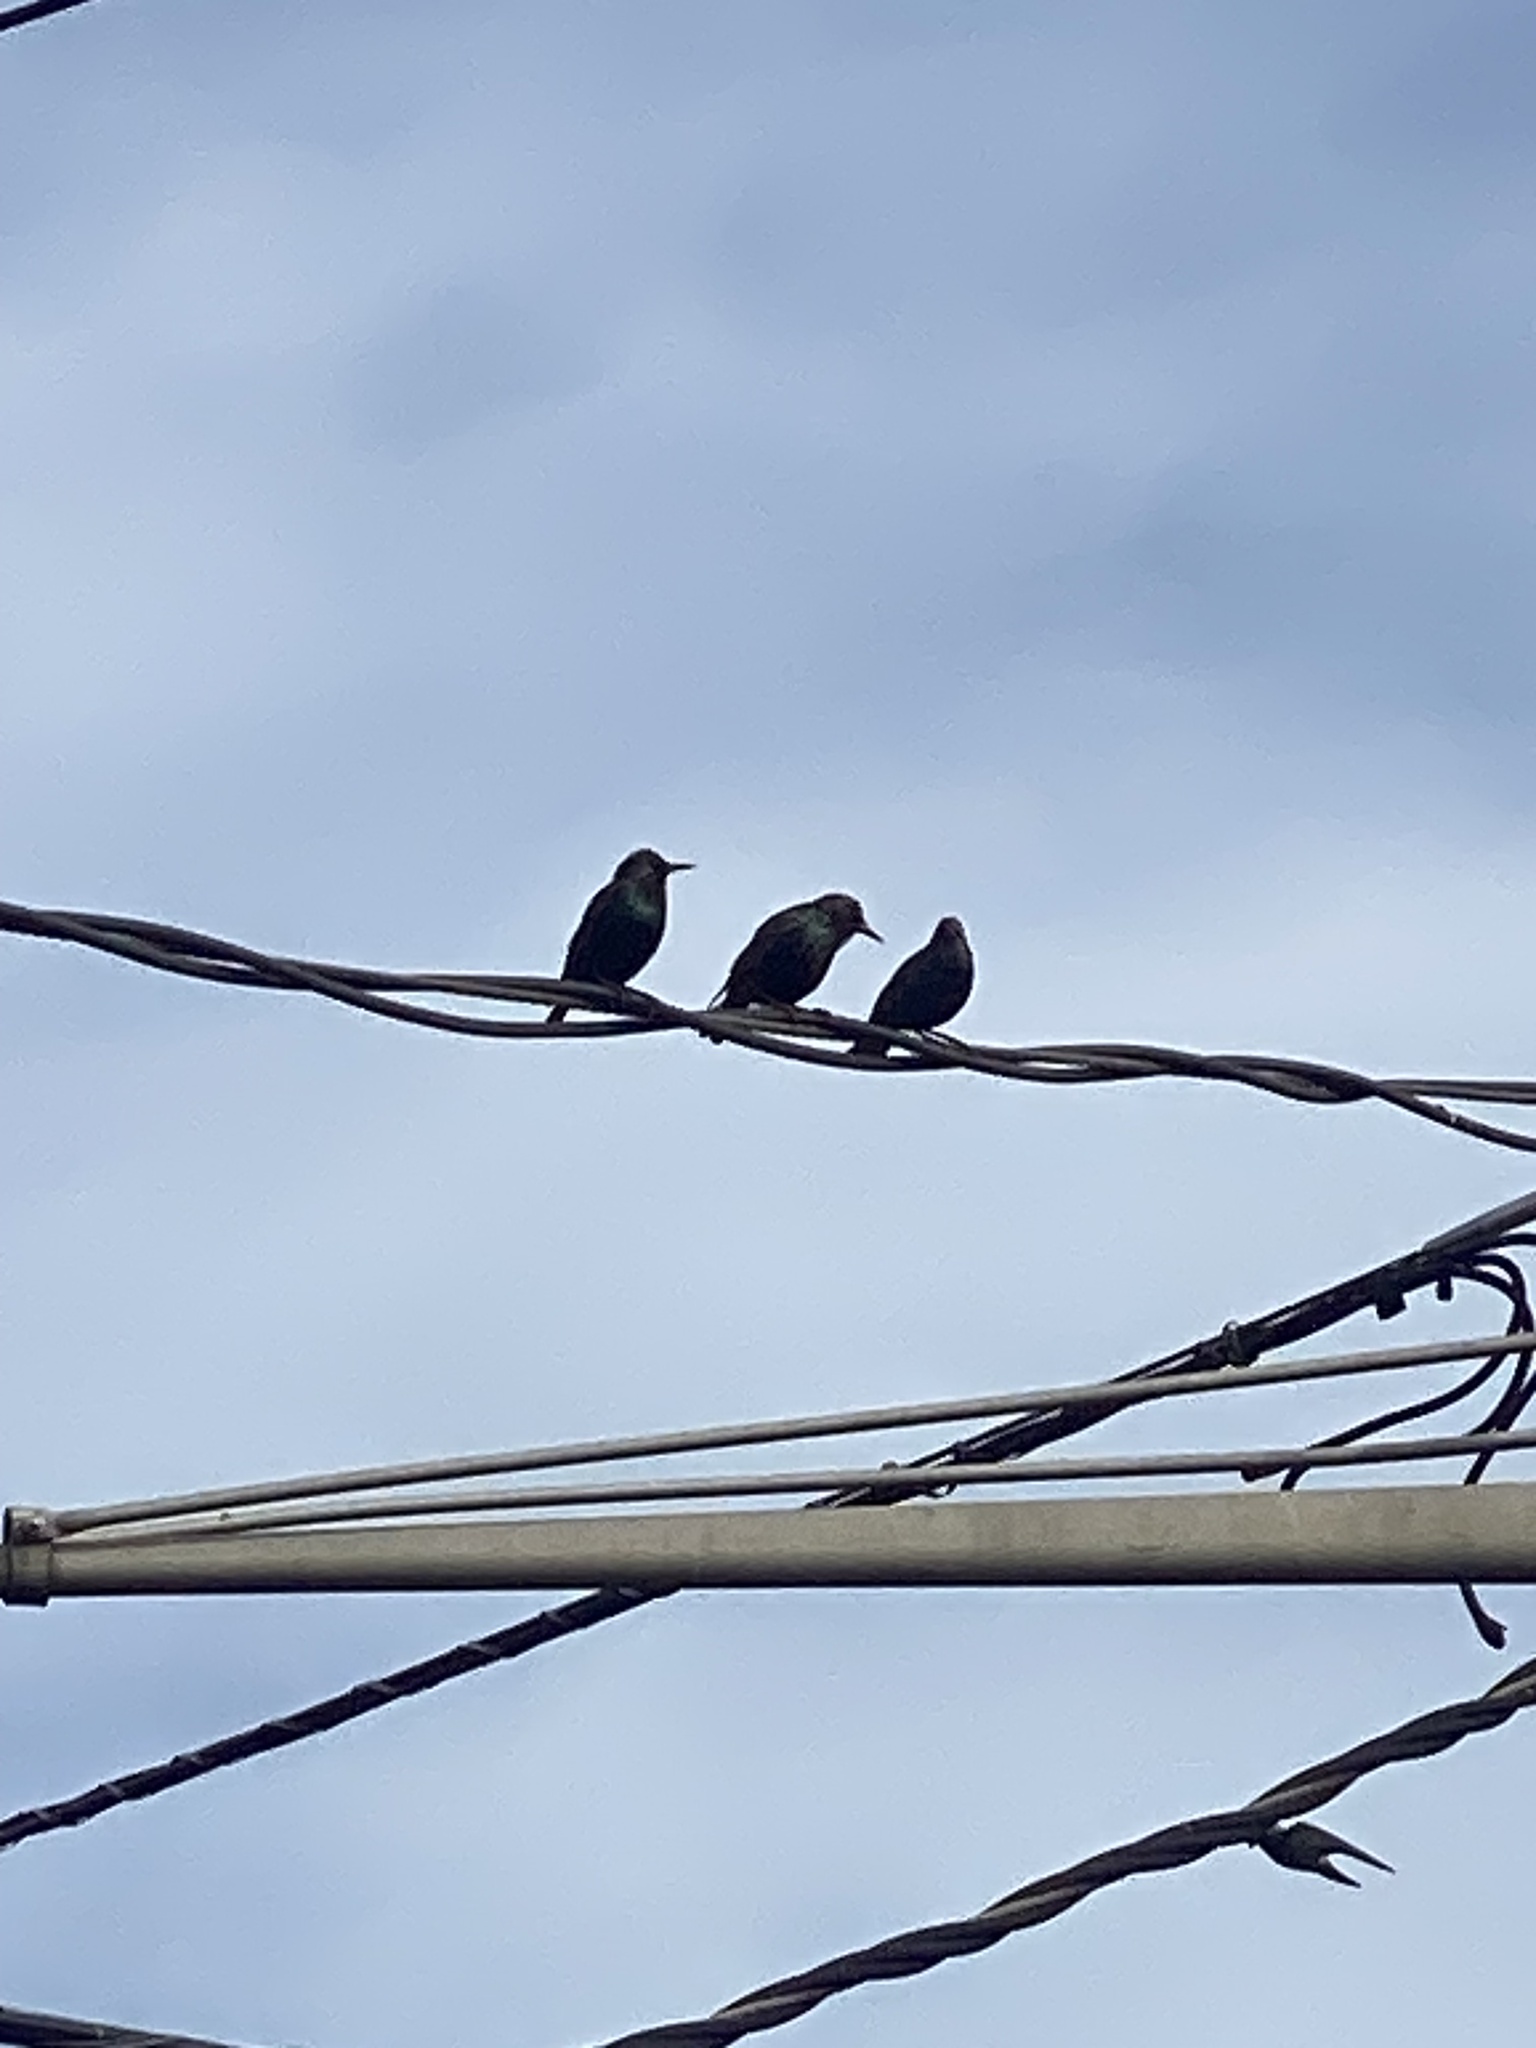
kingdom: Animalia
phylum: Chordata
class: Aves
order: Passeriformes
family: Sturnidae
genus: Sturnus
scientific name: Sturnus vulgaris
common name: Common starling
